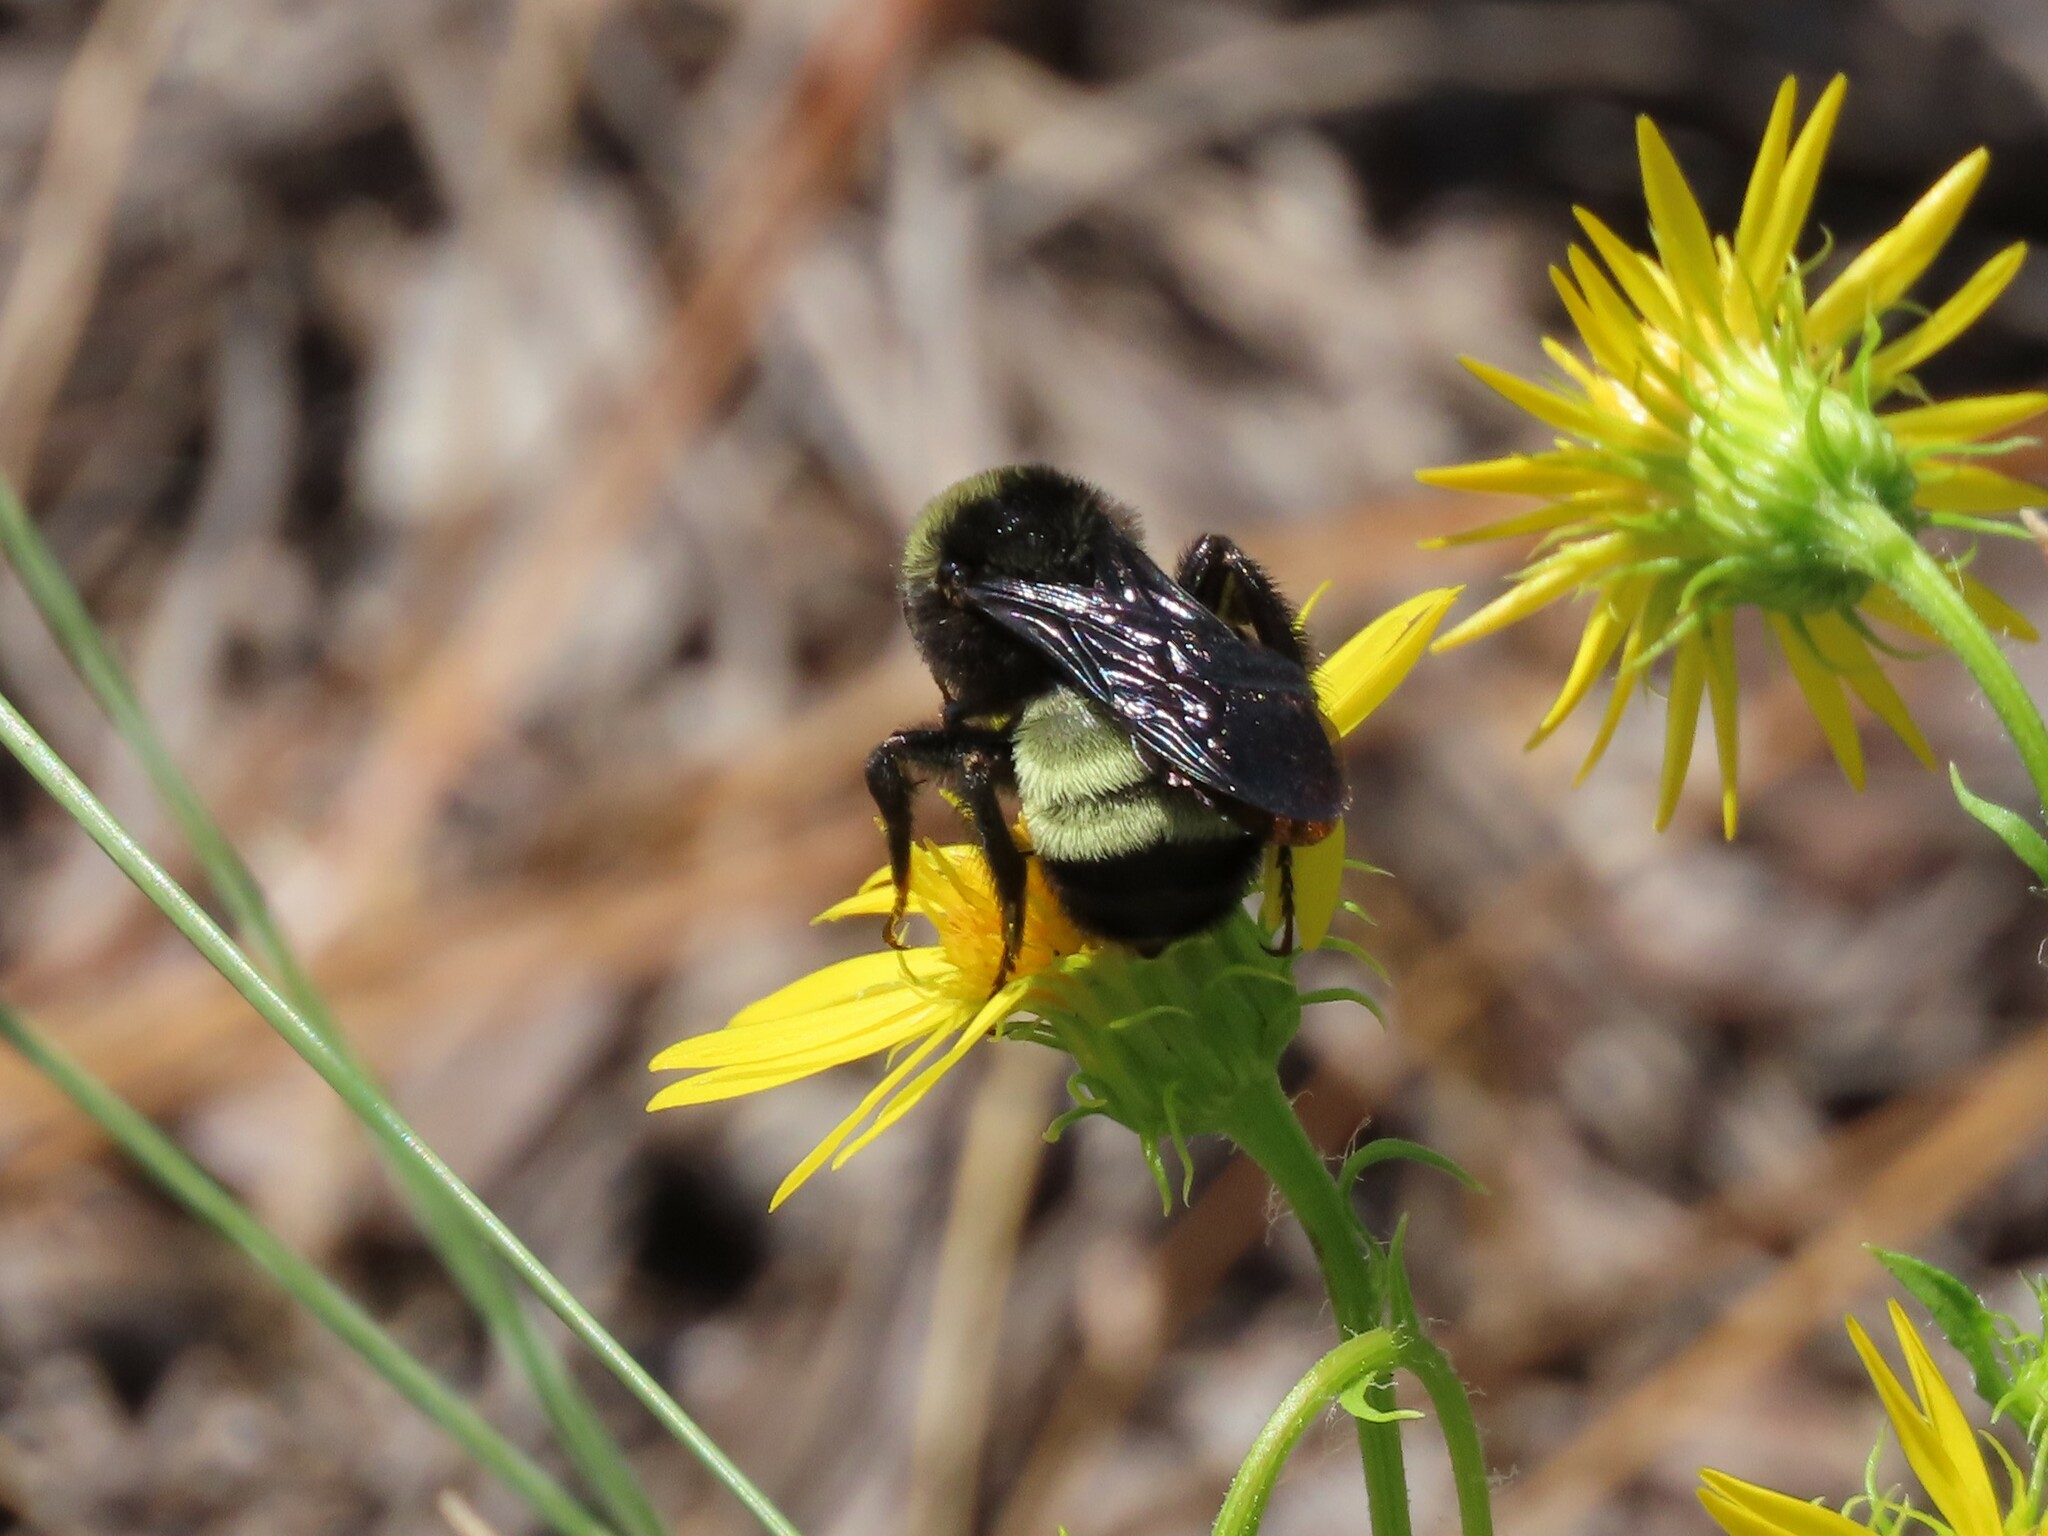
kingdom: Animalia
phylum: Arthropoda
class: Insecta
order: Hymenoptera
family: Apidae
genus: Bombus
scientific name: Bombus pensylvanicus
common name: Bumble bee
